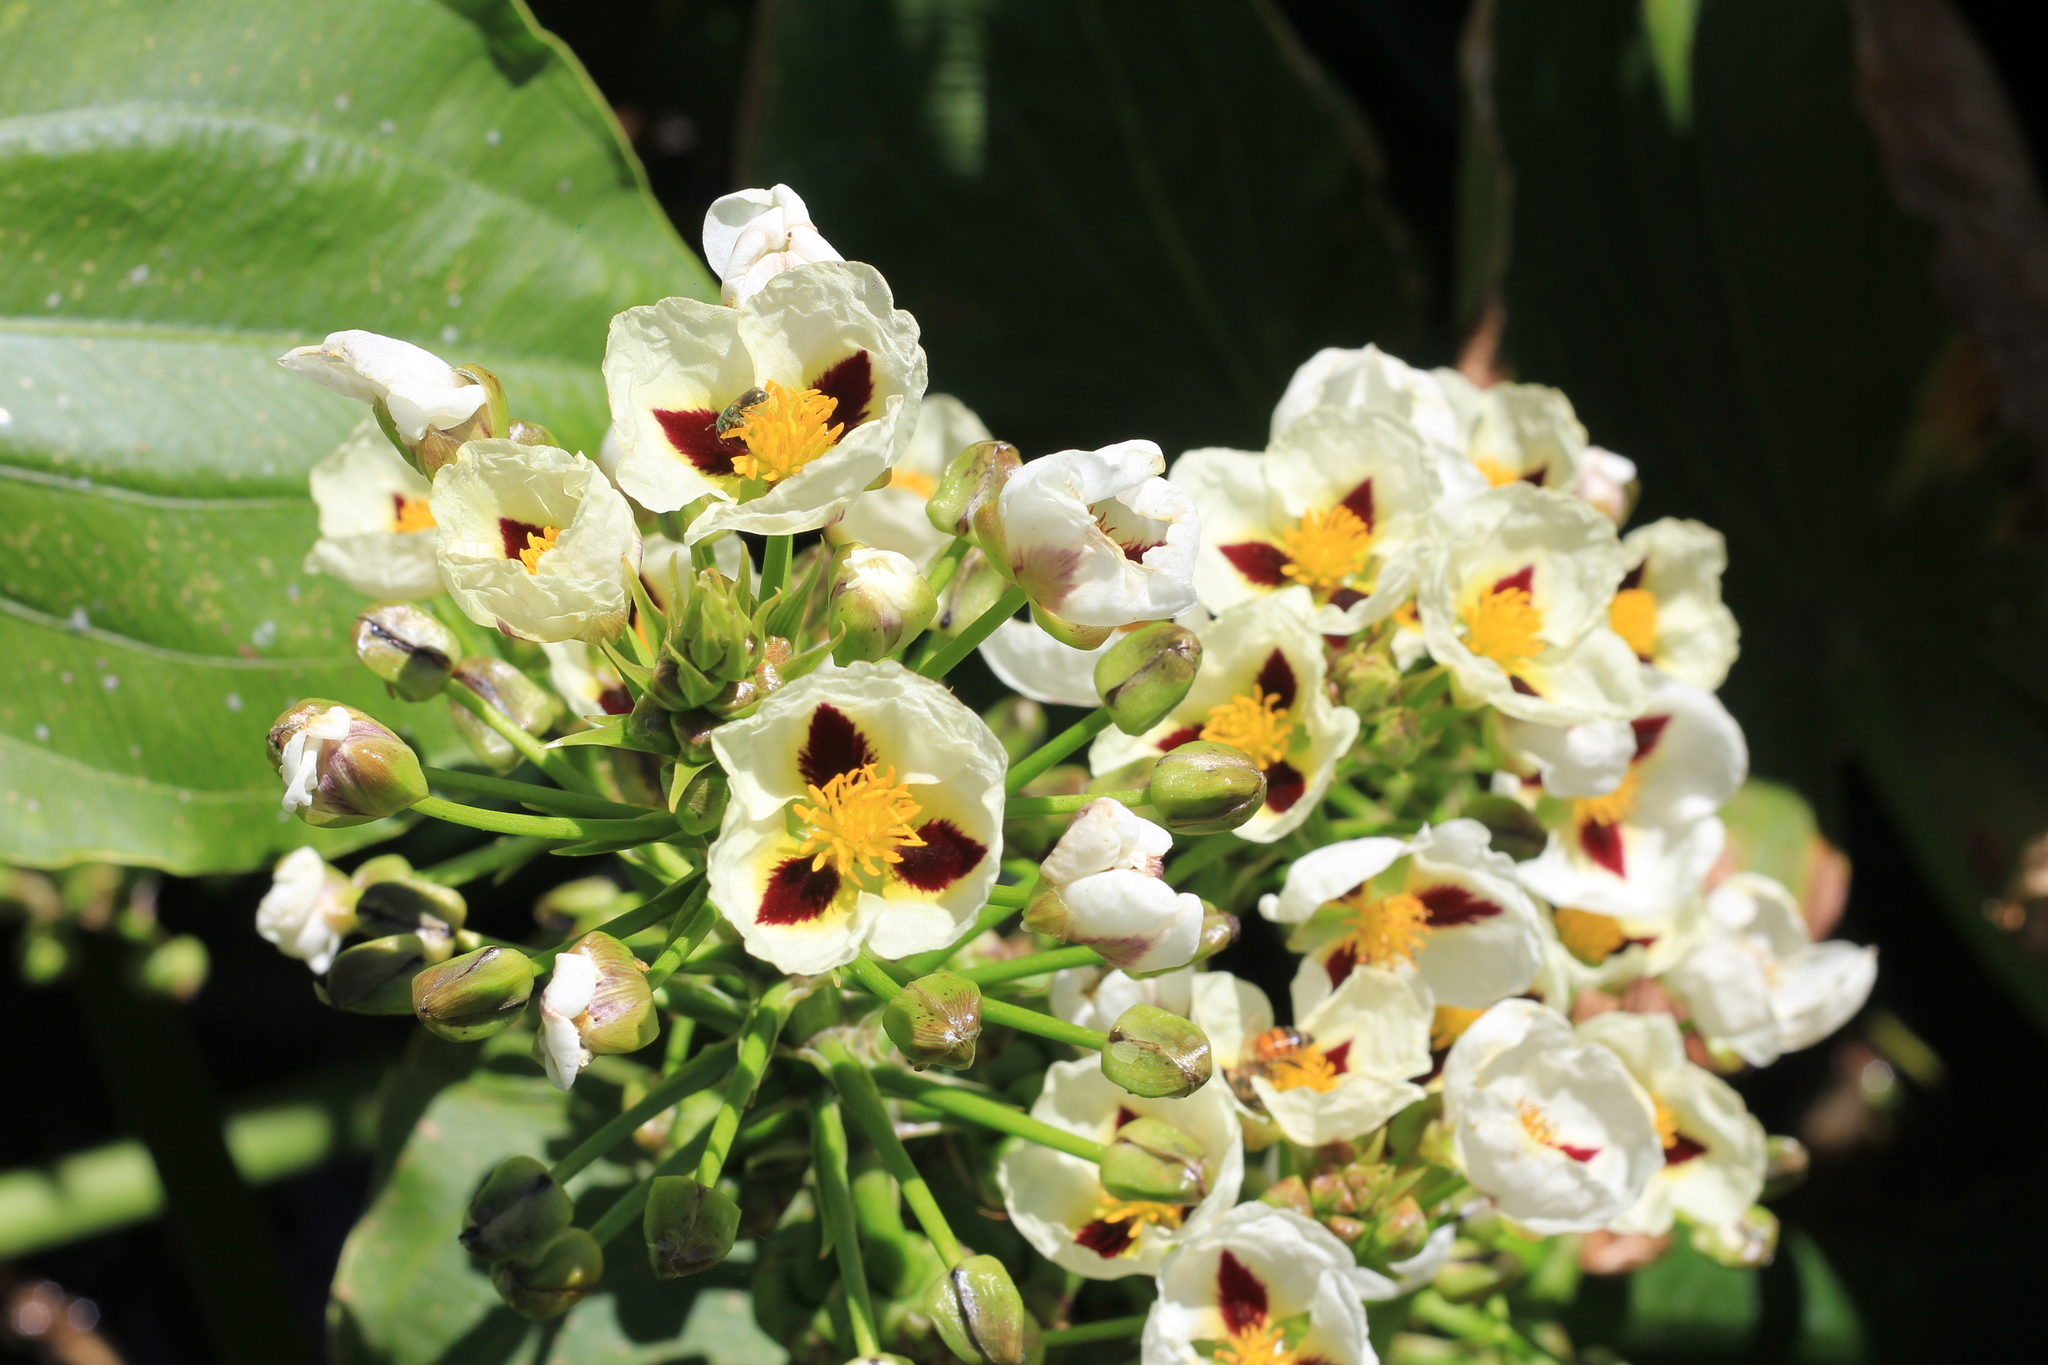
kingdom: Plantae
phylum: Tracheophyta
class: Liliopsida
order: Alismatales
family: Alismataceae
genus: Sagittaria
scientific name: Sagittaria montevidensis
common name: Giant arrowhead
